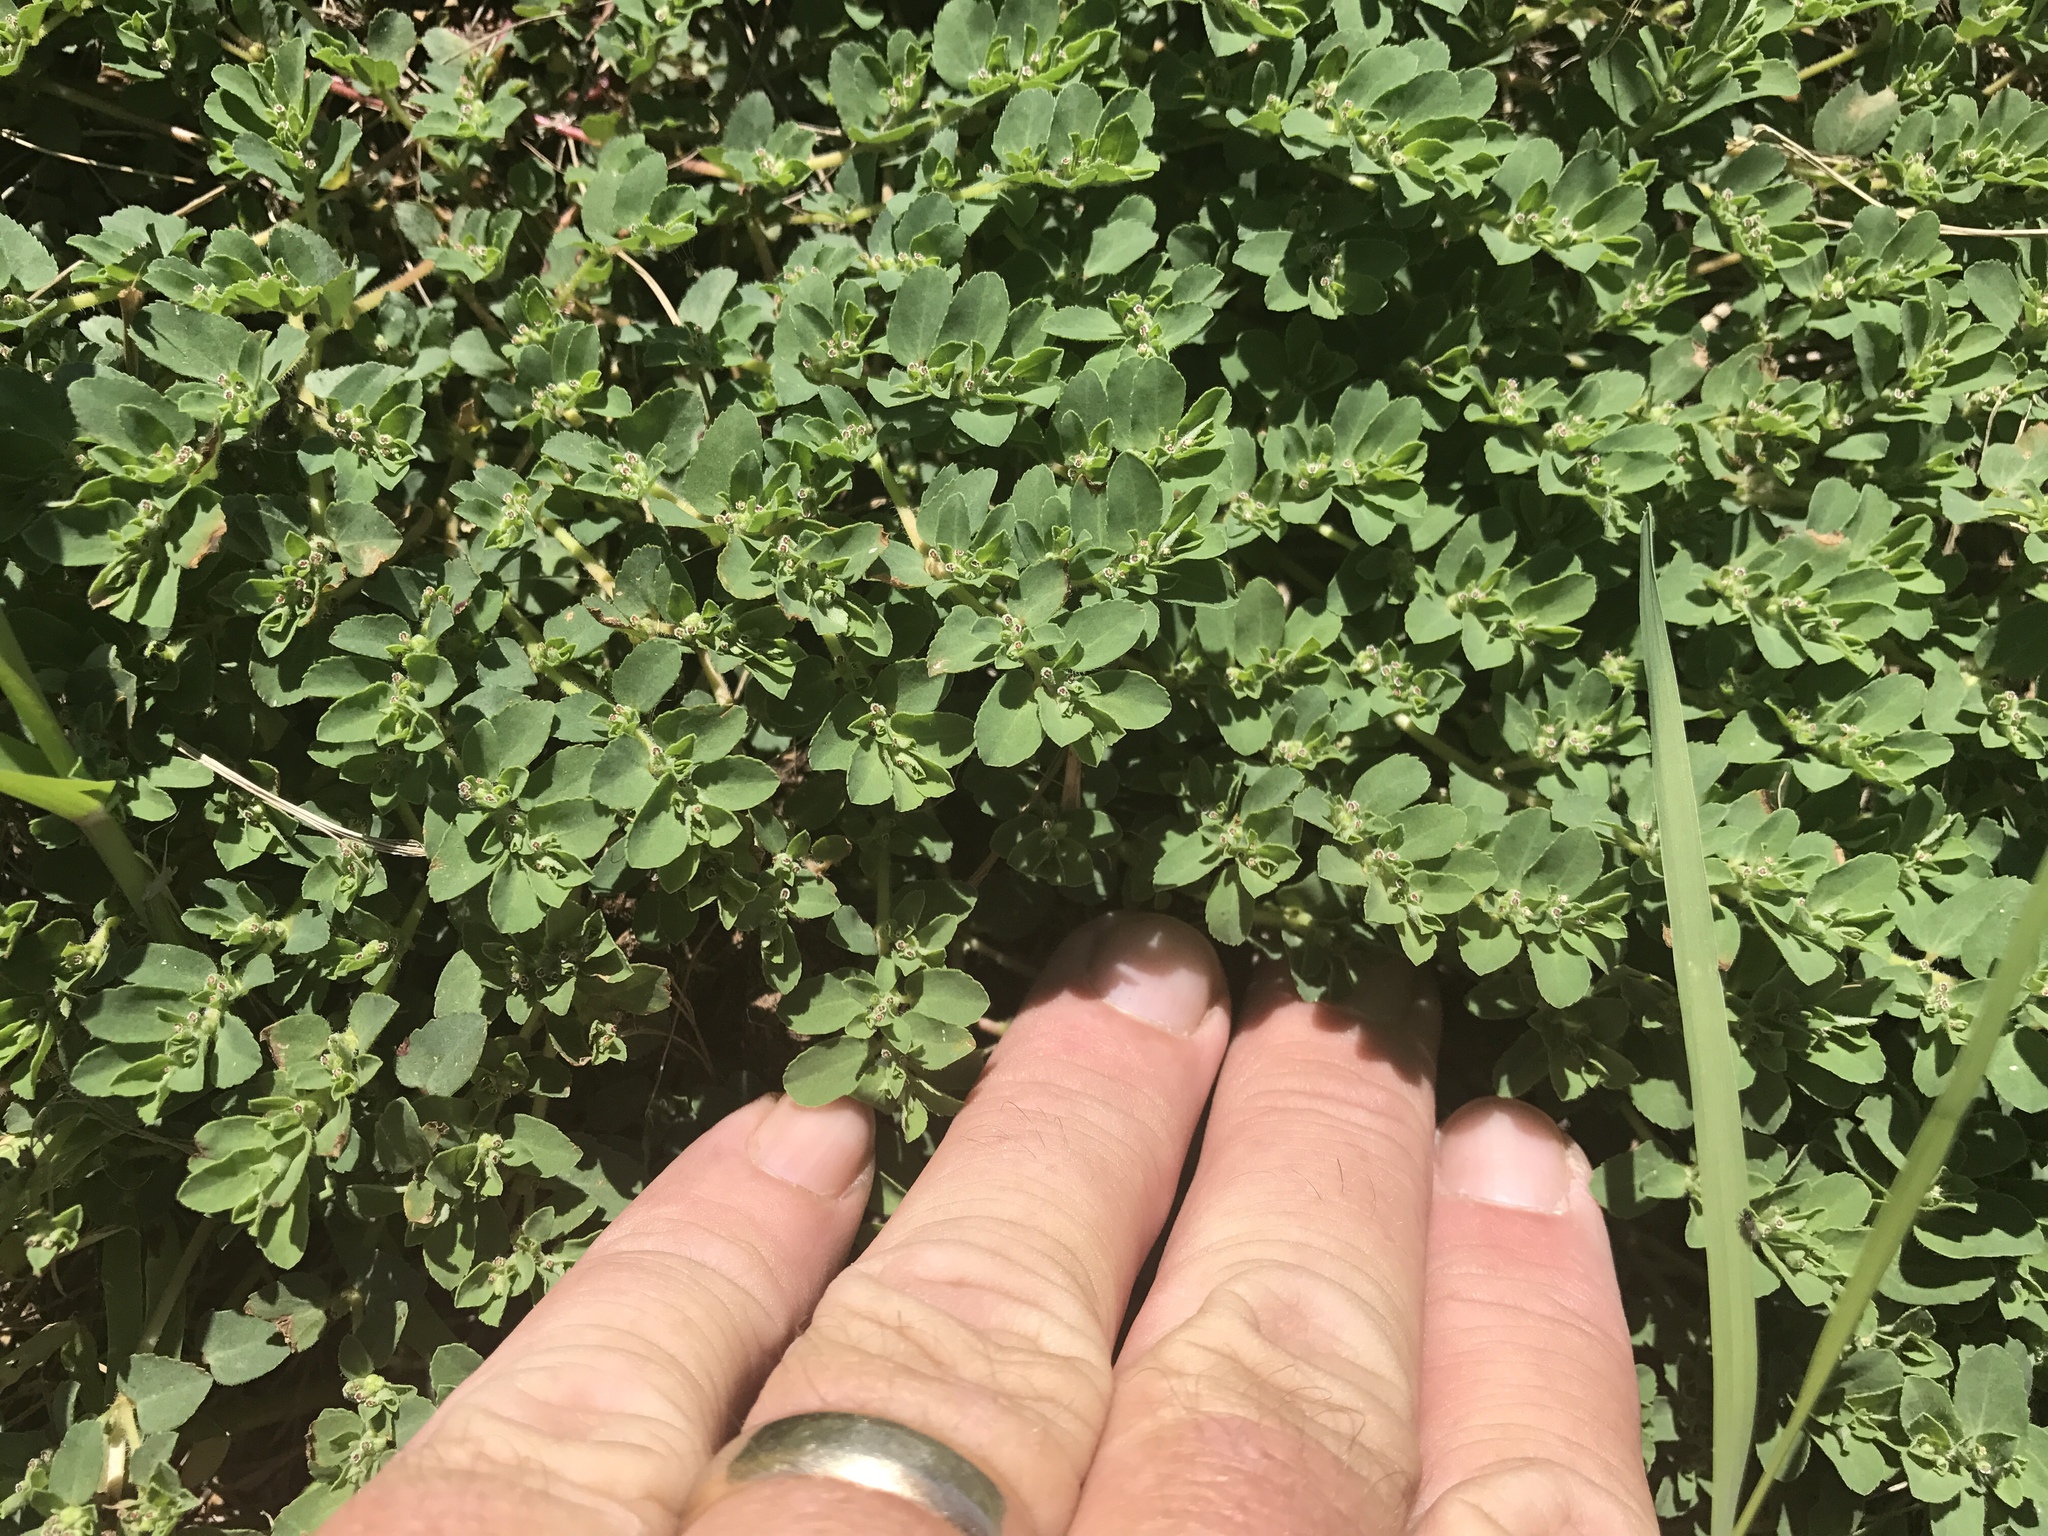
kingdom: Plantae
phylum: Tracheophyta
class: Magnoliopsida
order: Malpighiales
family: Euphorbiaceae
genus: Euphorbia
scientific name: Euphorbia stictospora
